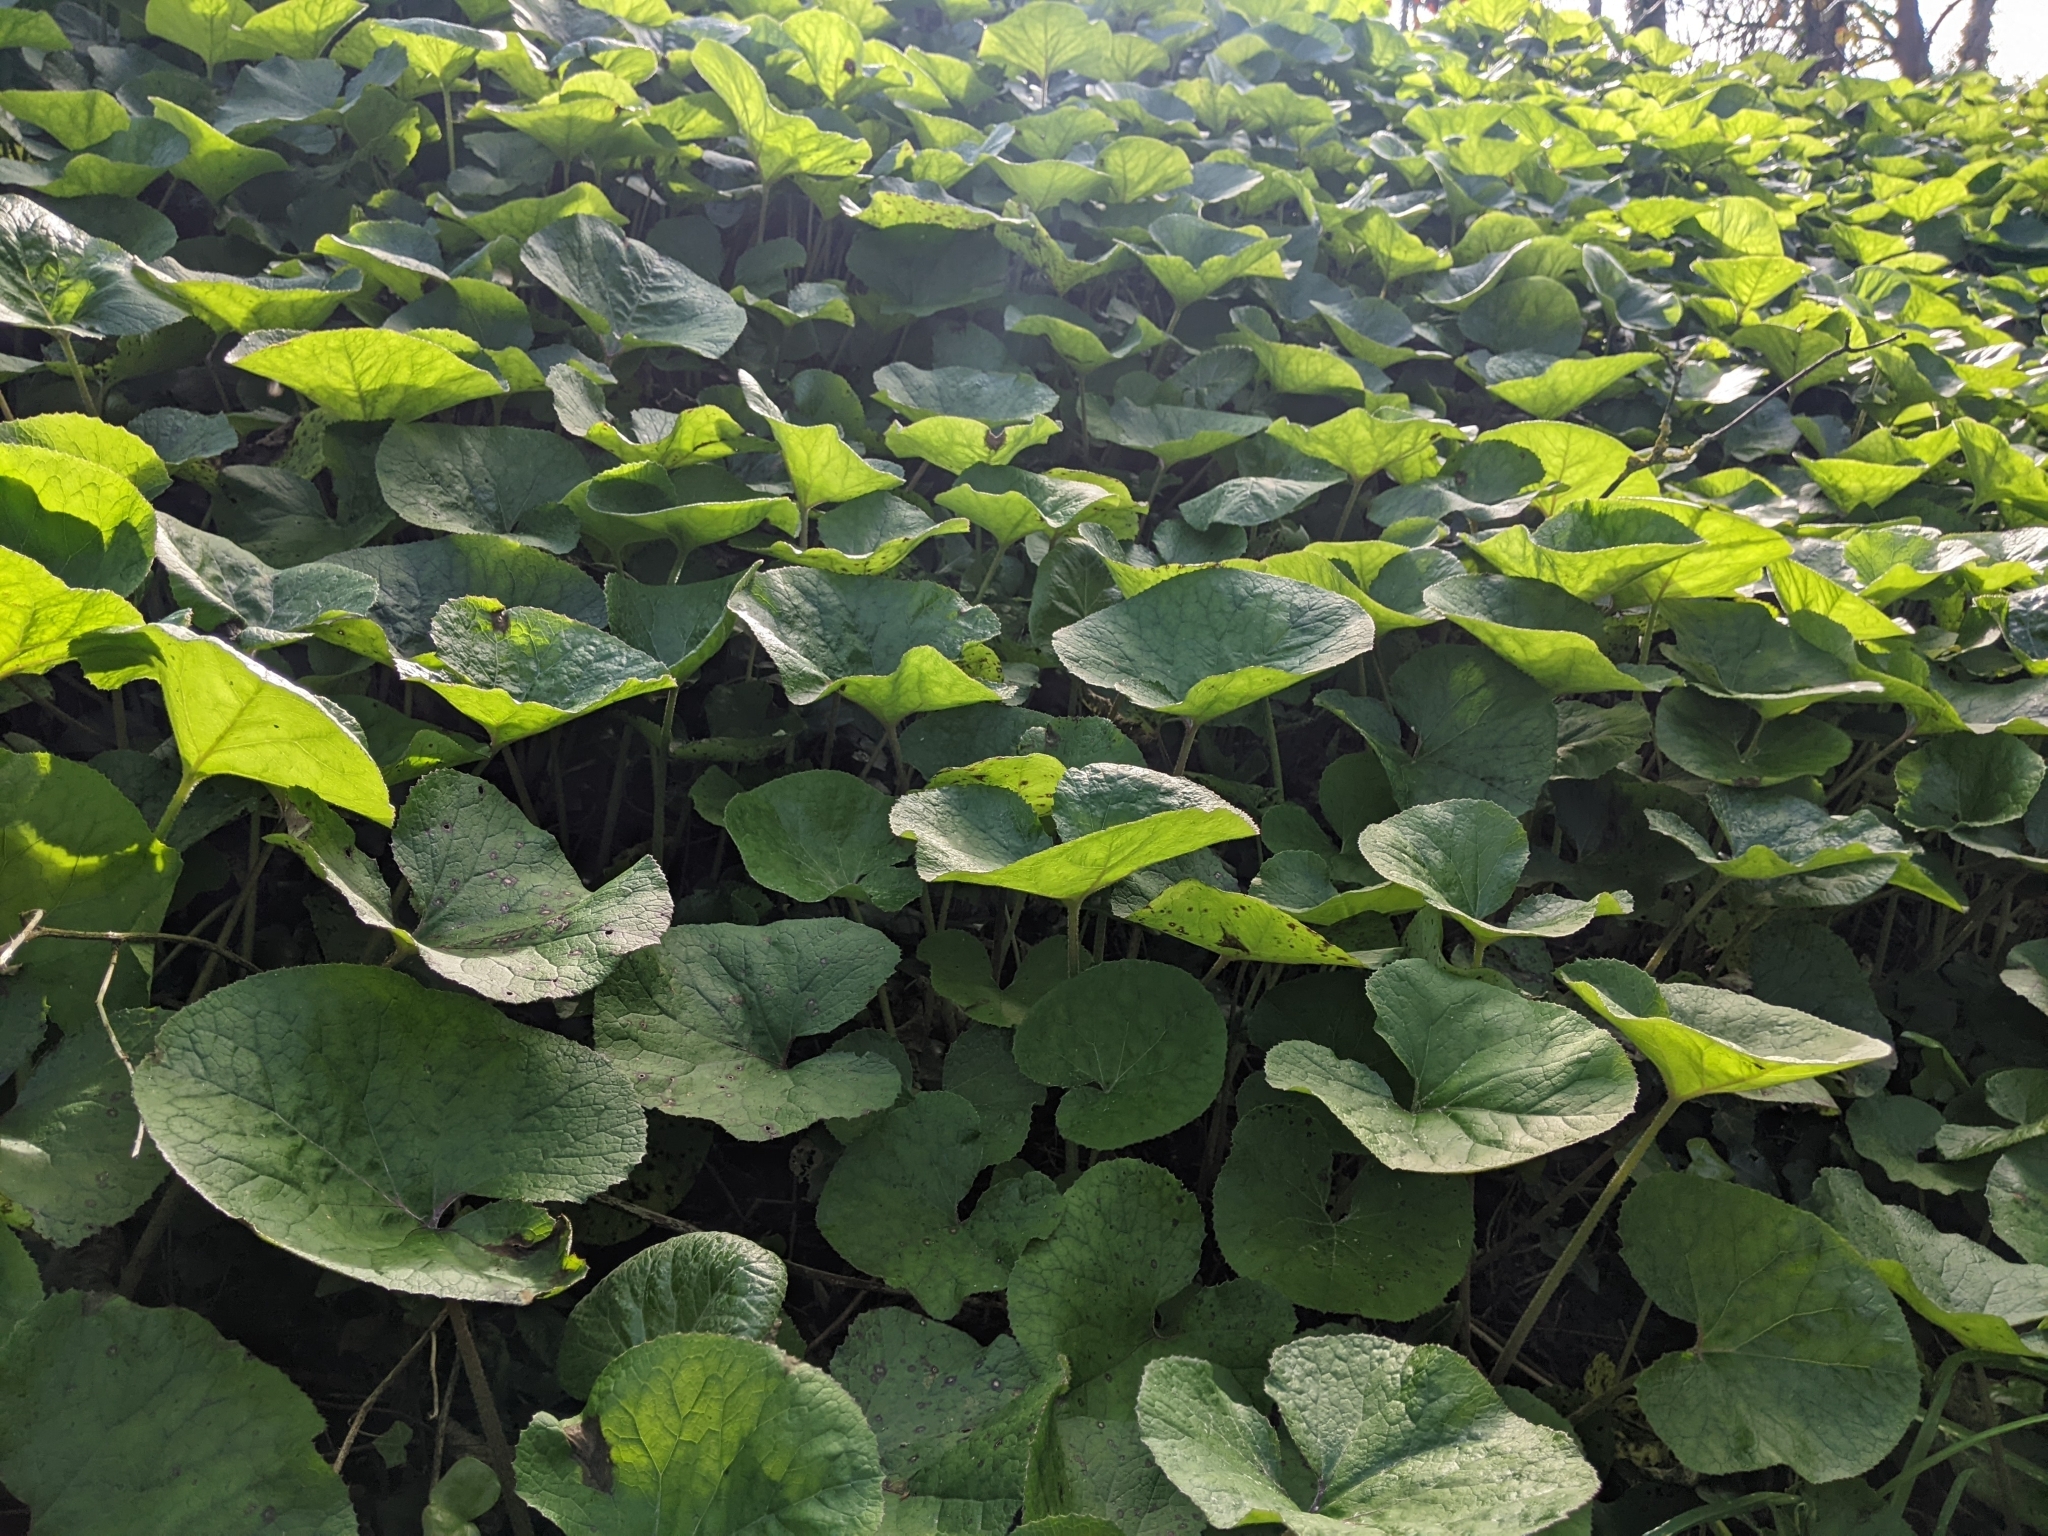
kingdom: Plantae
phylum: Tracheophyta
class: Magnoliopsida
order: Asterales
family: Asteraceae
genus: Petasites
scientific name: Petasites pyrenaicus
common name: Winter heliotrope
